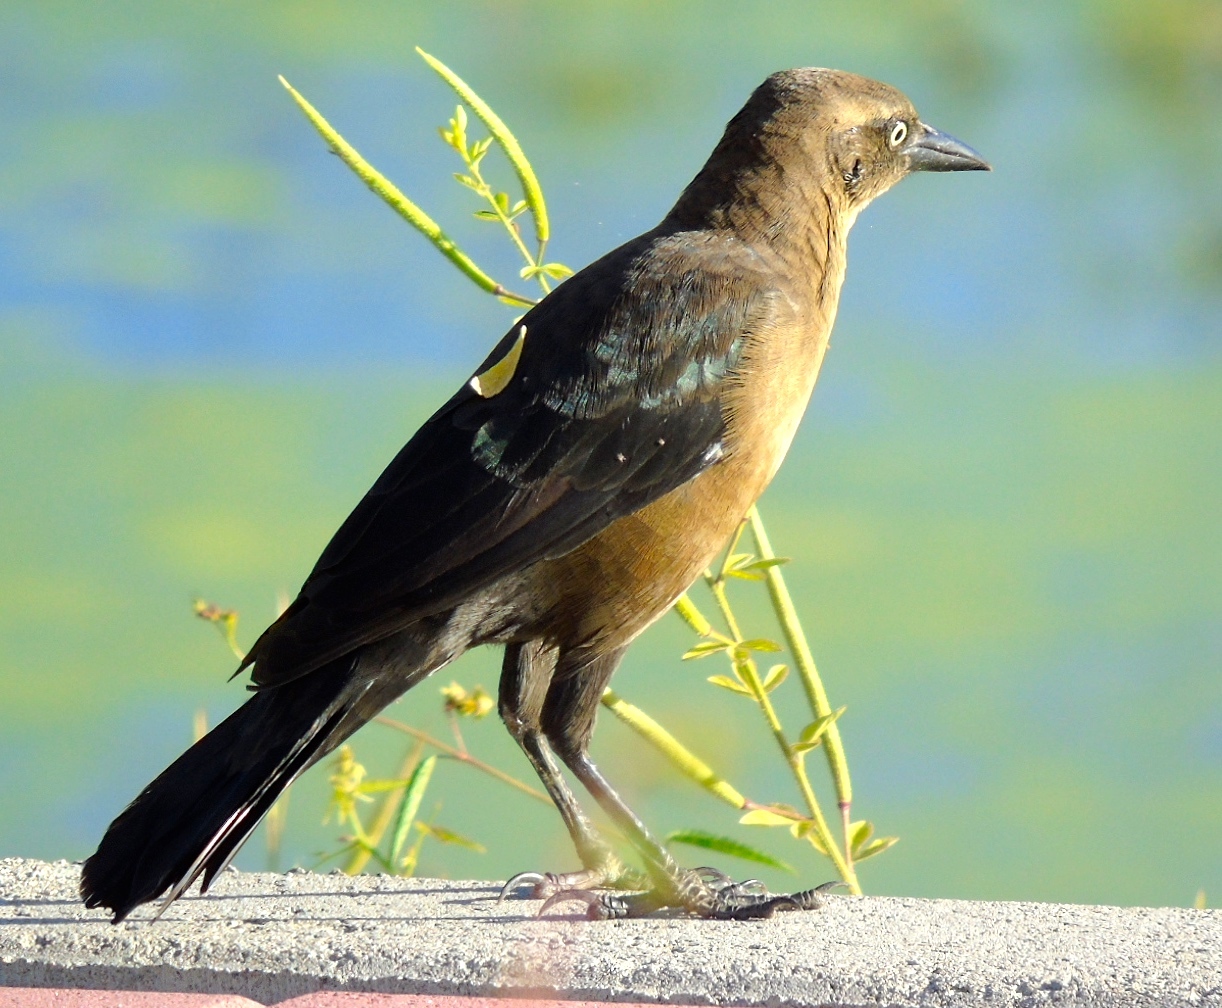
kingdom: Animalia
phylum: Chordata
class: Aves
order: Passeriformes
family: Icteridae
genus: Quiscalus
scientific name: Quiscalus mexicanus
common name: Great-tailed grackle
